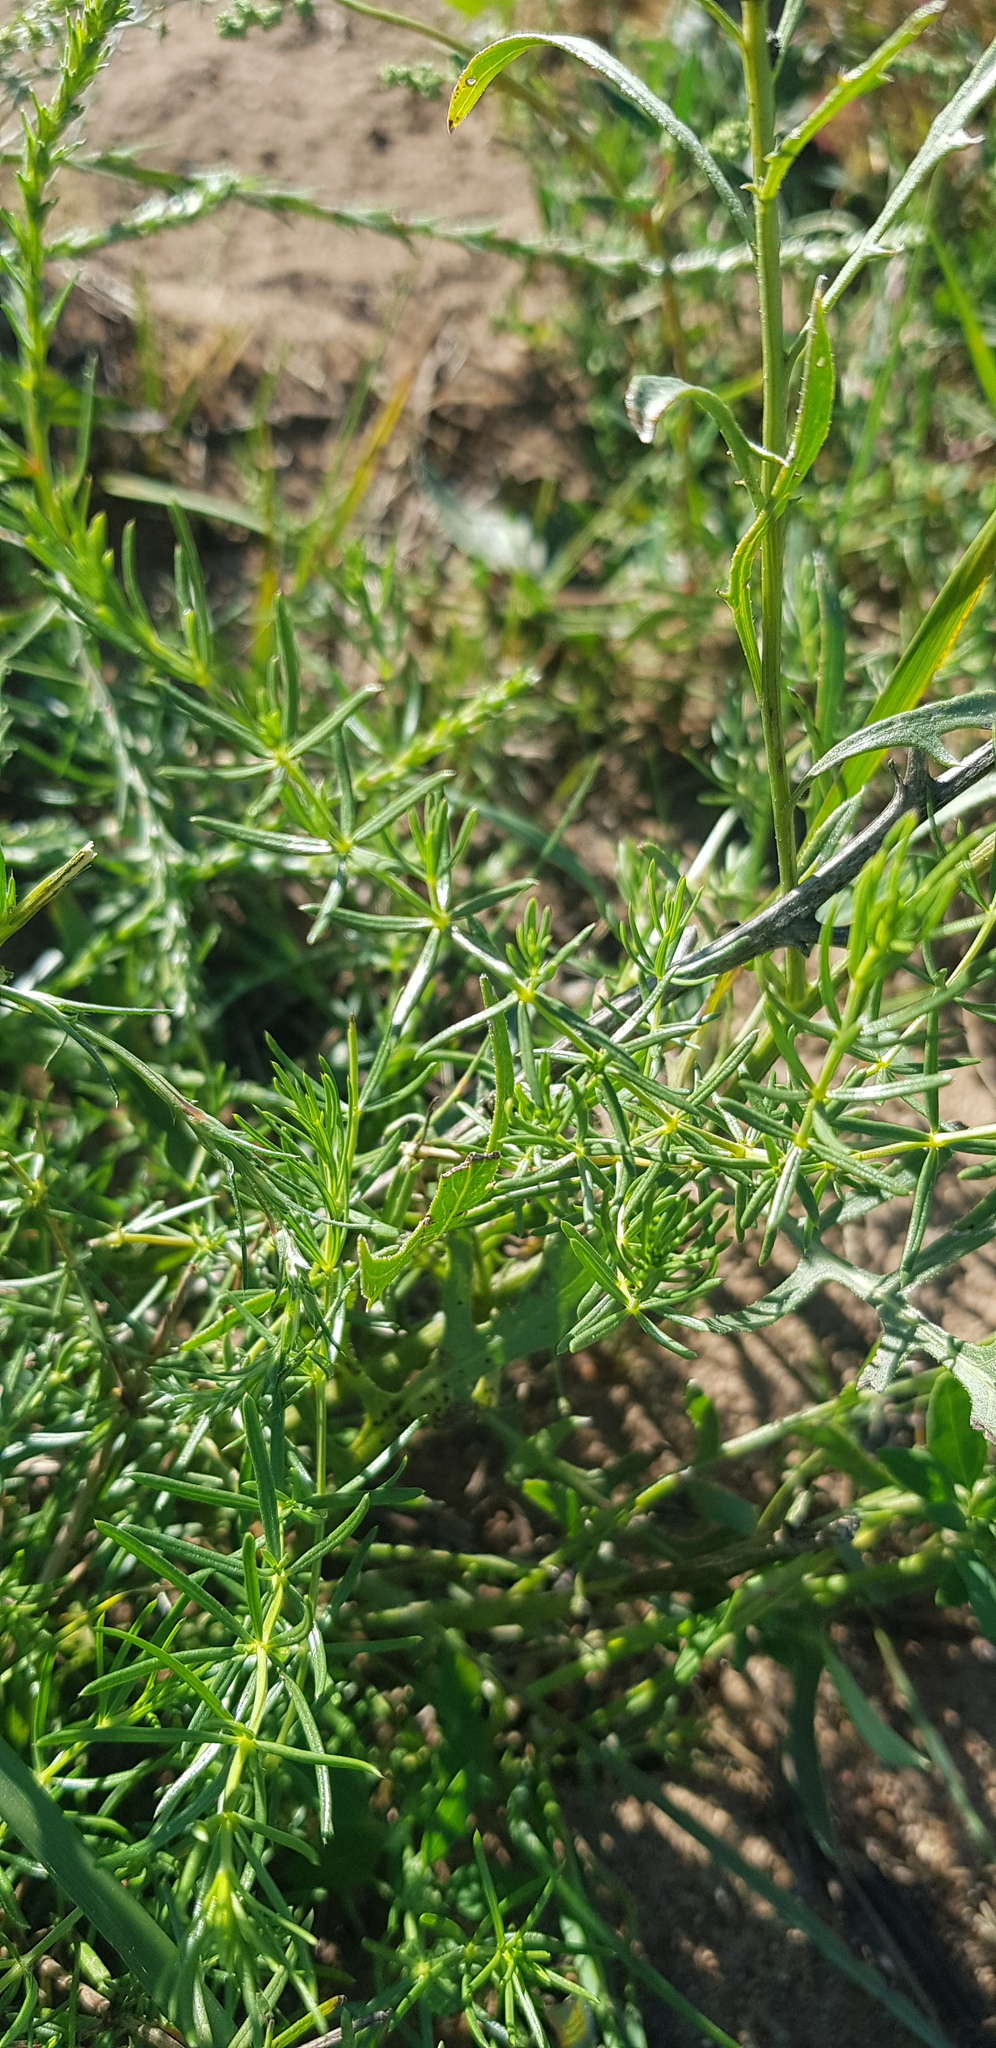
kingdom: Plantae
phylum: Tracheophyta
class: Magnoliopsida
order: Gentianales
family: Rubiaceae
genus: Galium
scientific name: Galium boreale
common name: Northern bedstraw
